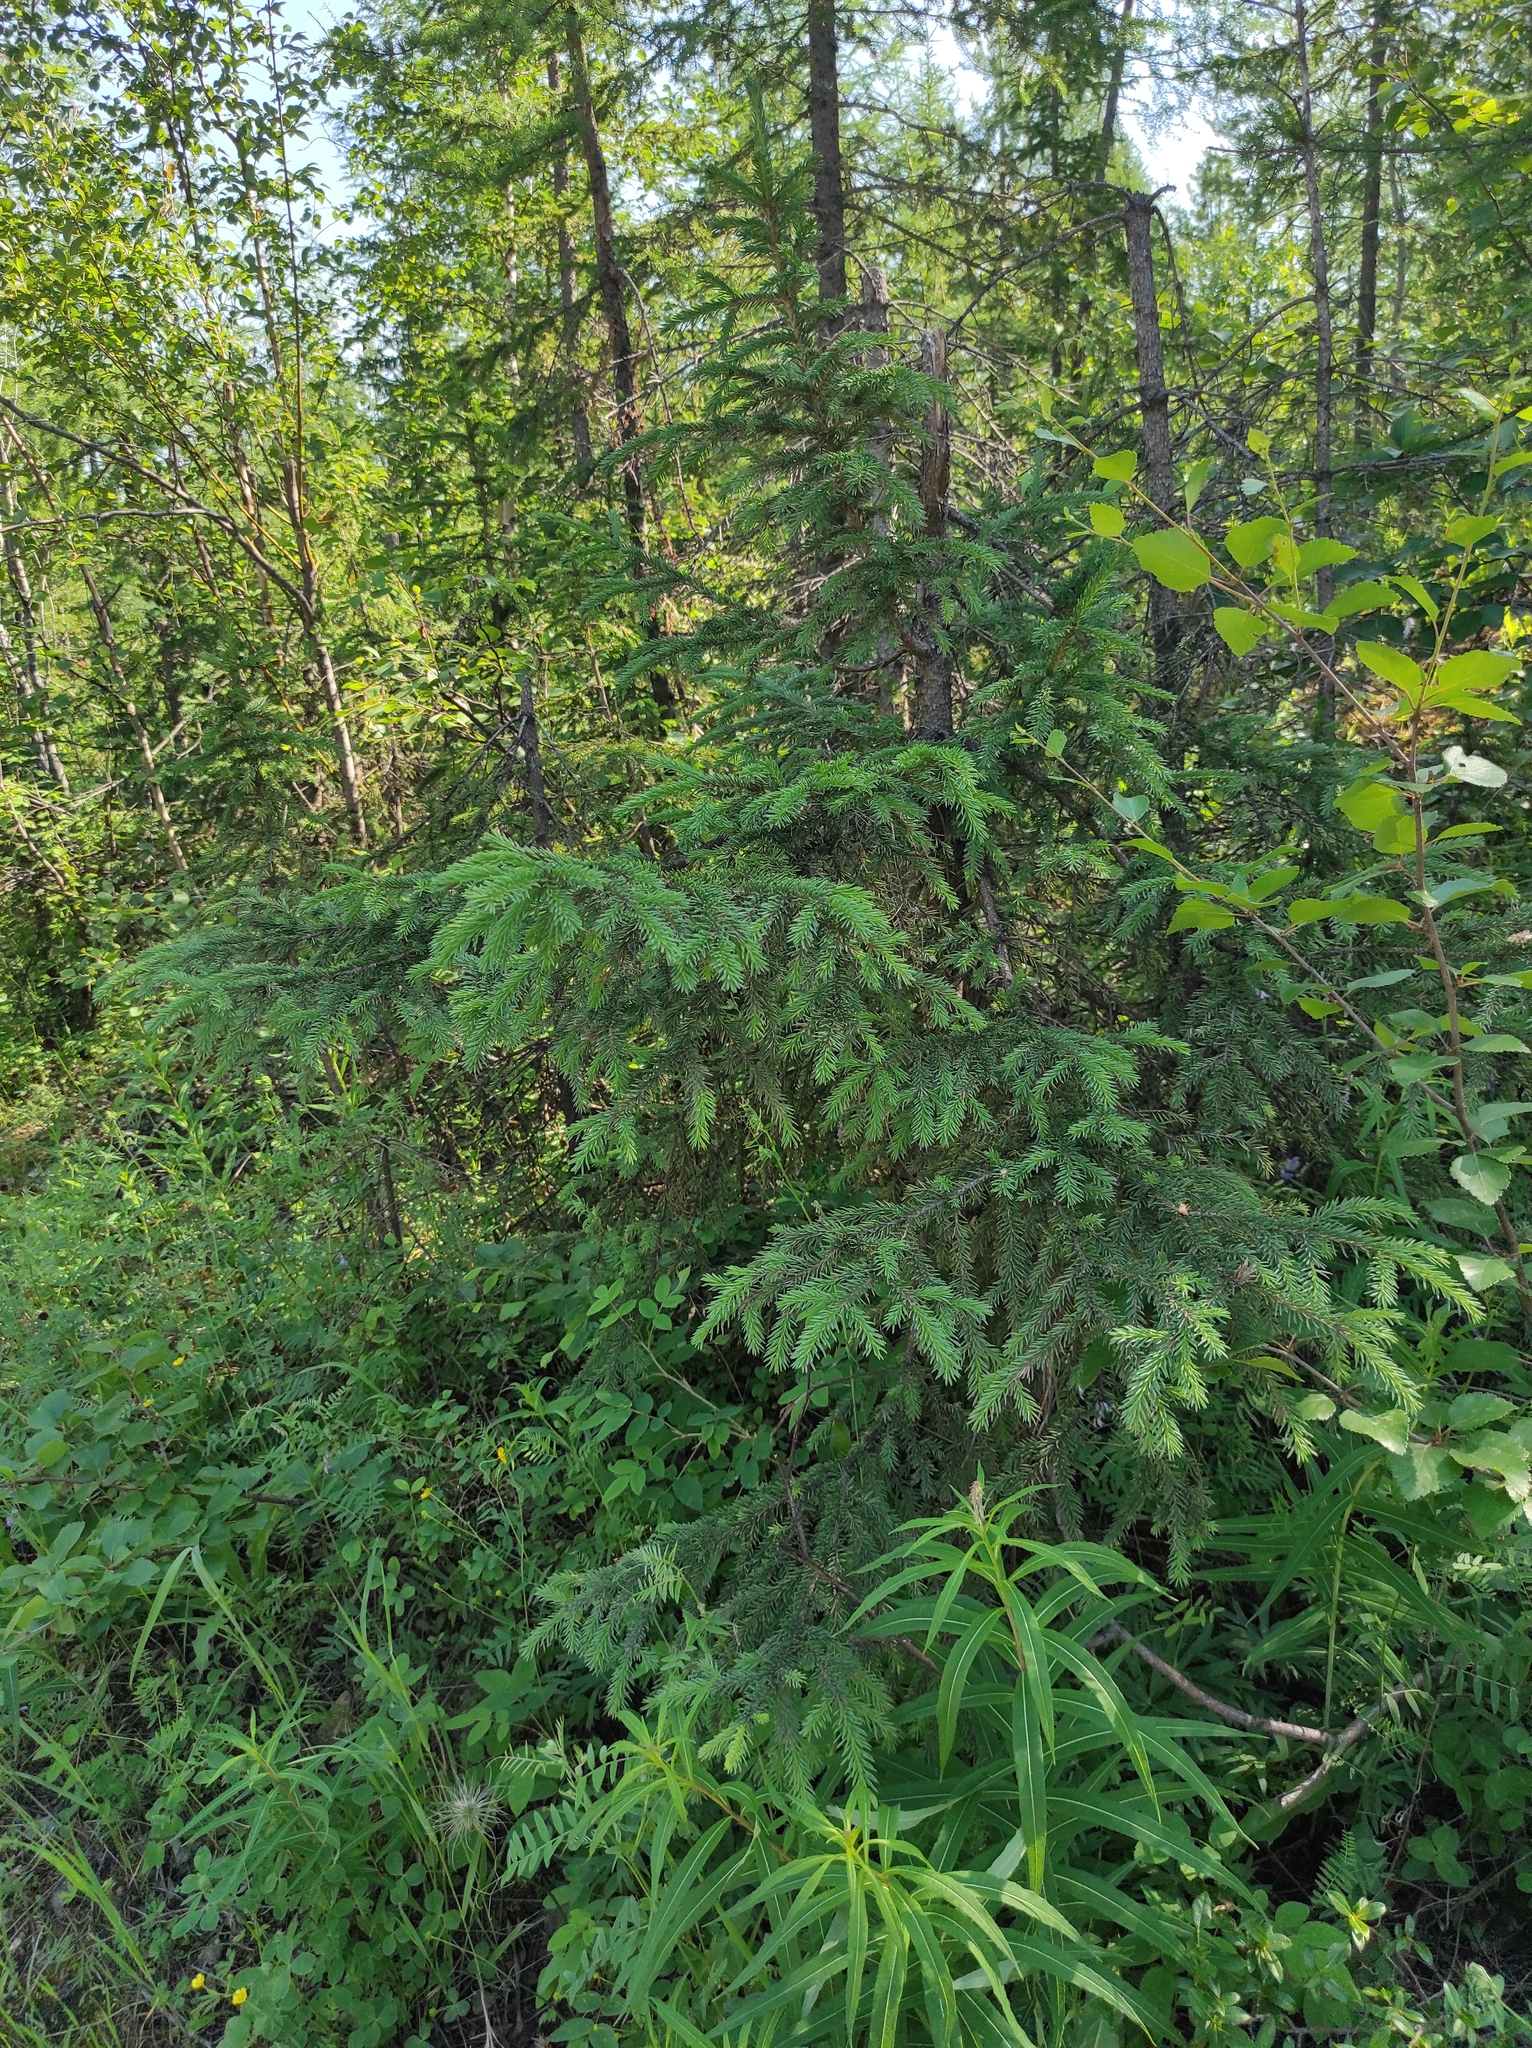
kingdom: Plantae
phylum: Tracheophyta
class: Pinopsida
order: Pinales
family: Pinaceae
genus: Picea
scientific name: Picea obovata
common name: Siberian spruce
